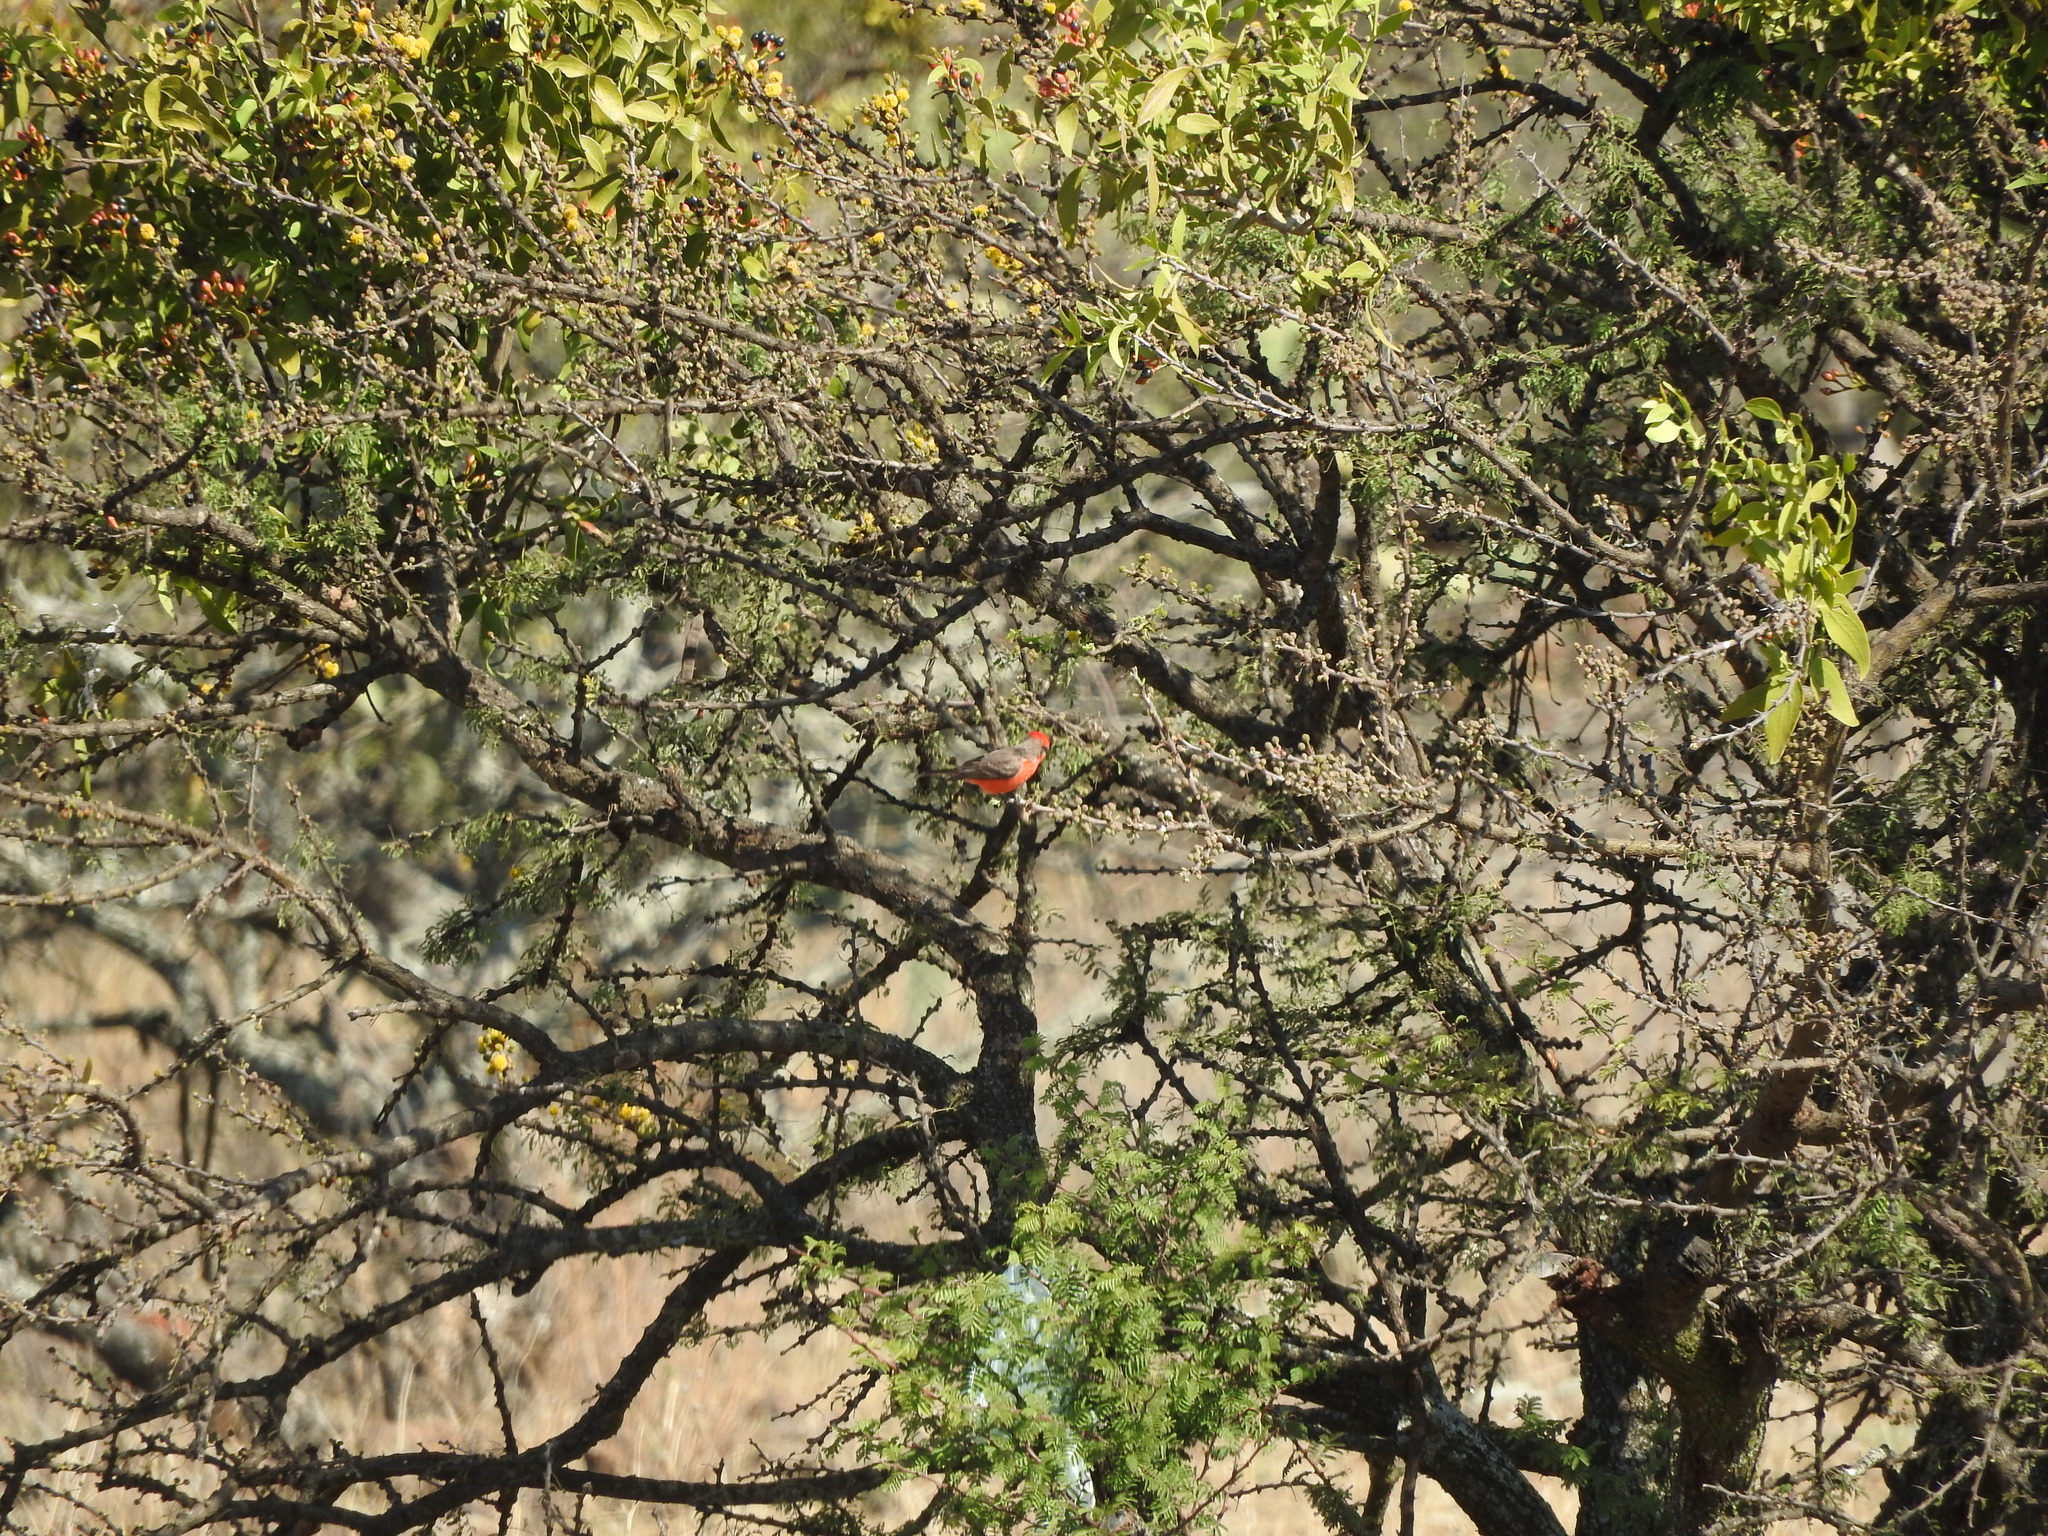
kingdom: Animalia
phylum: Chordata
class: Aves
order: Passeriformes
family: Tyrannidae
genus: Pyrocephalus
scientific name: Pyrocephalus rubinus
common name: Vermilion flycatcher
